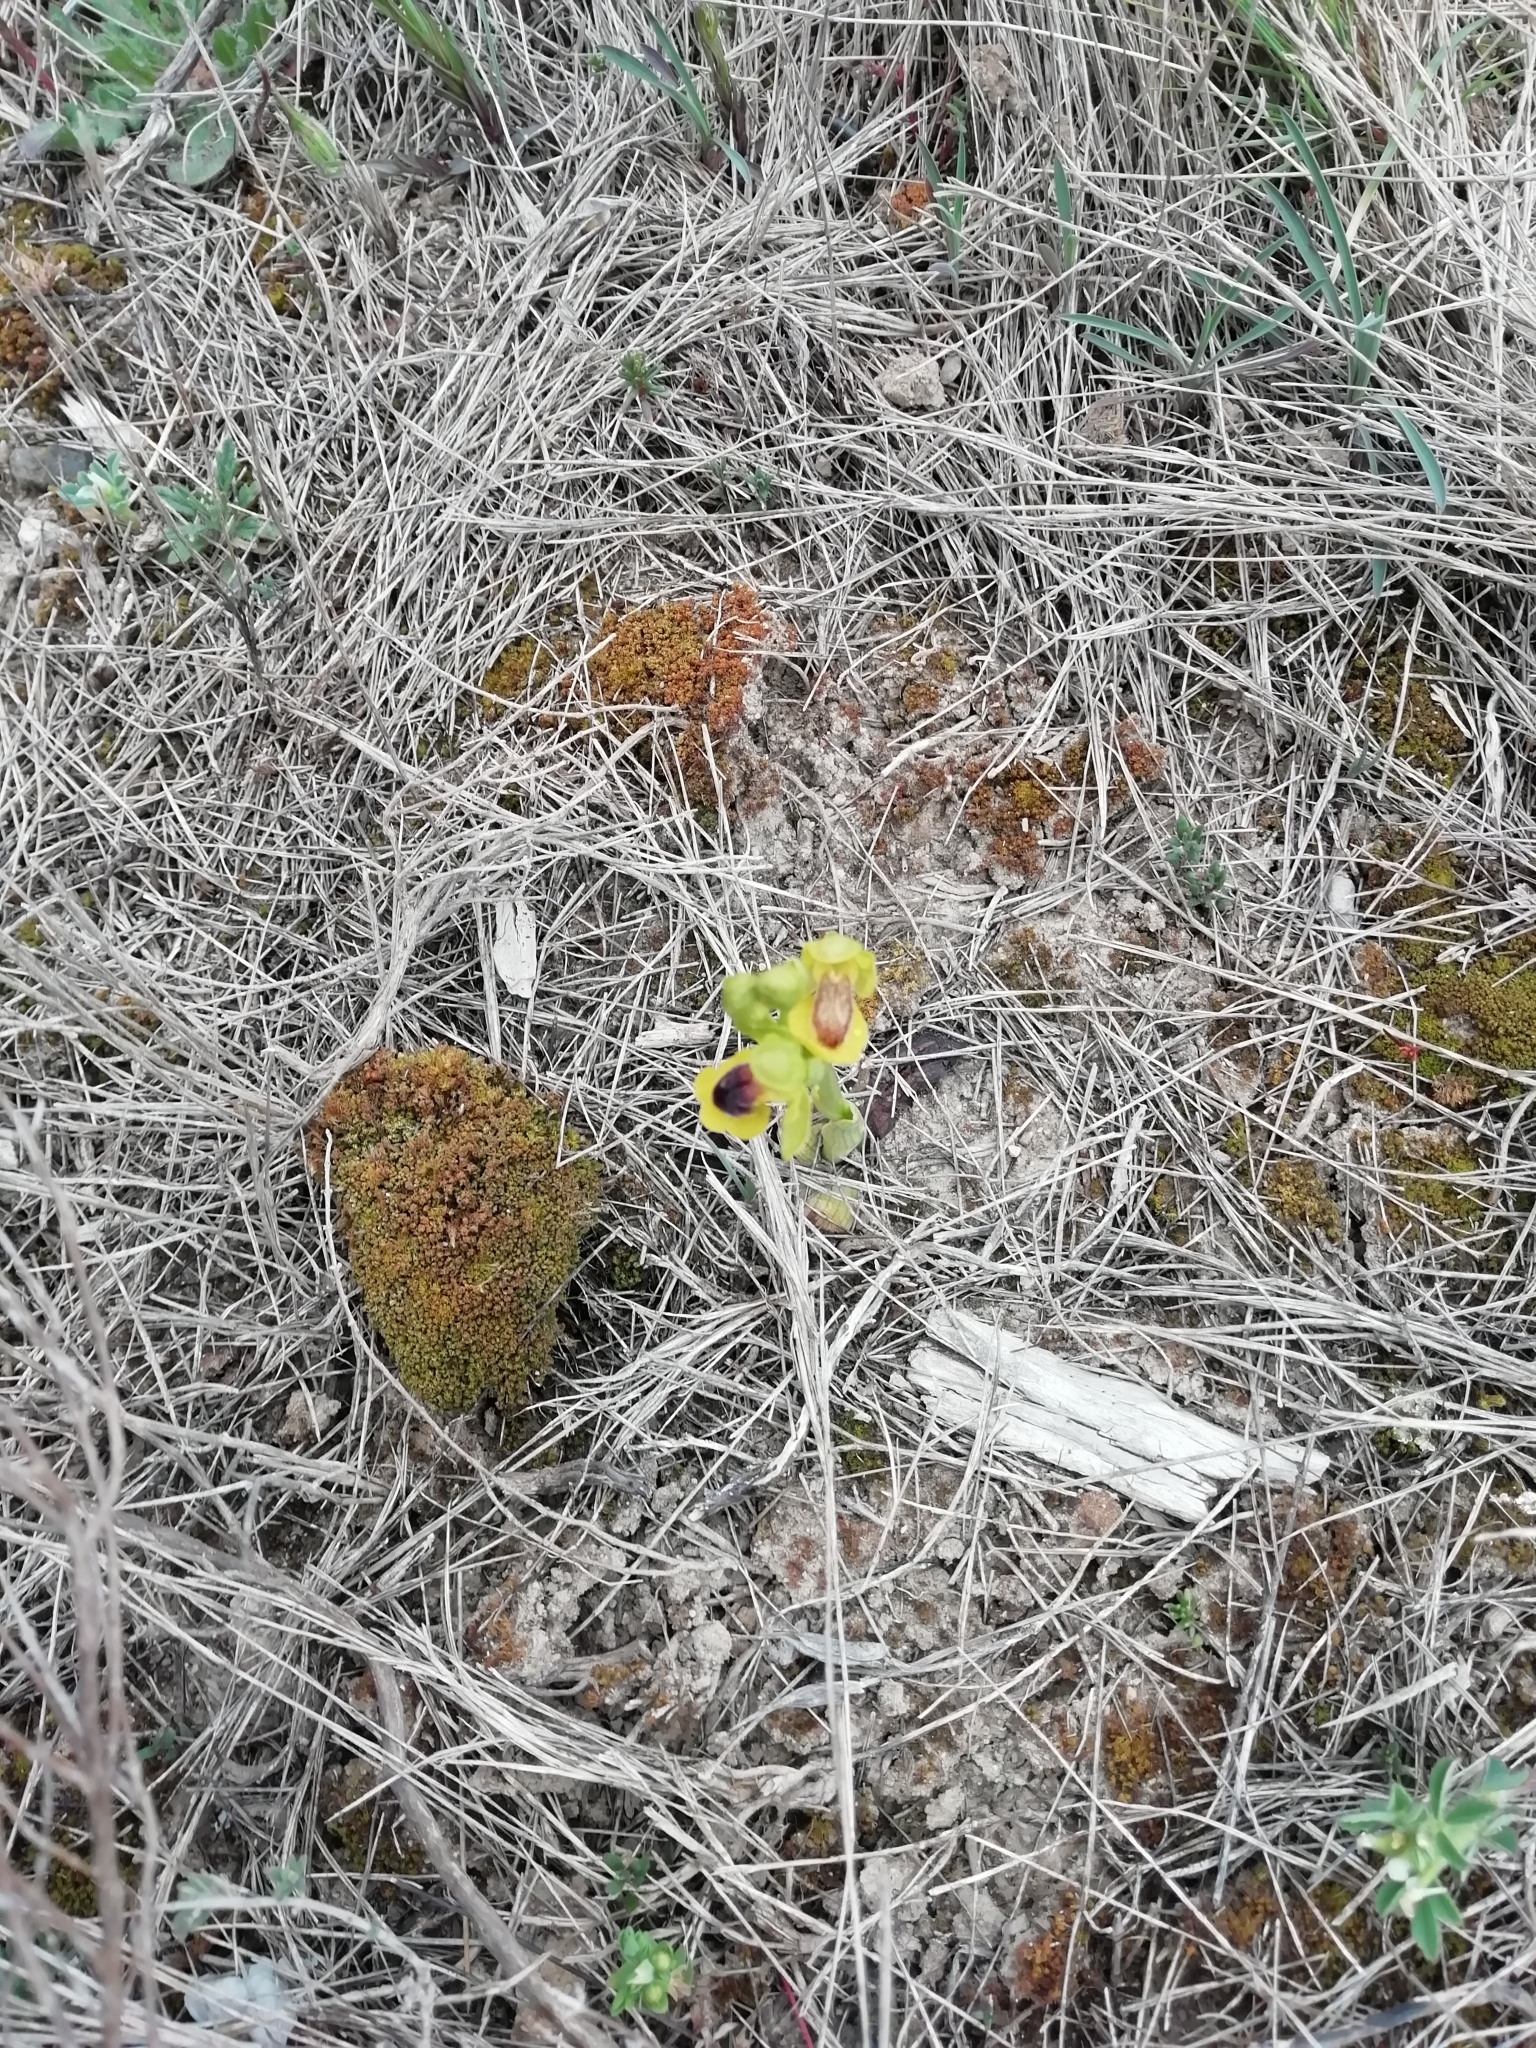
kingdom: Plantae
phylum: Tracheophyta
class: Liliopsida
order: Asparagales
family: Orchidaceae
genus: Ophrys
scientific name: Ophrys lutea
